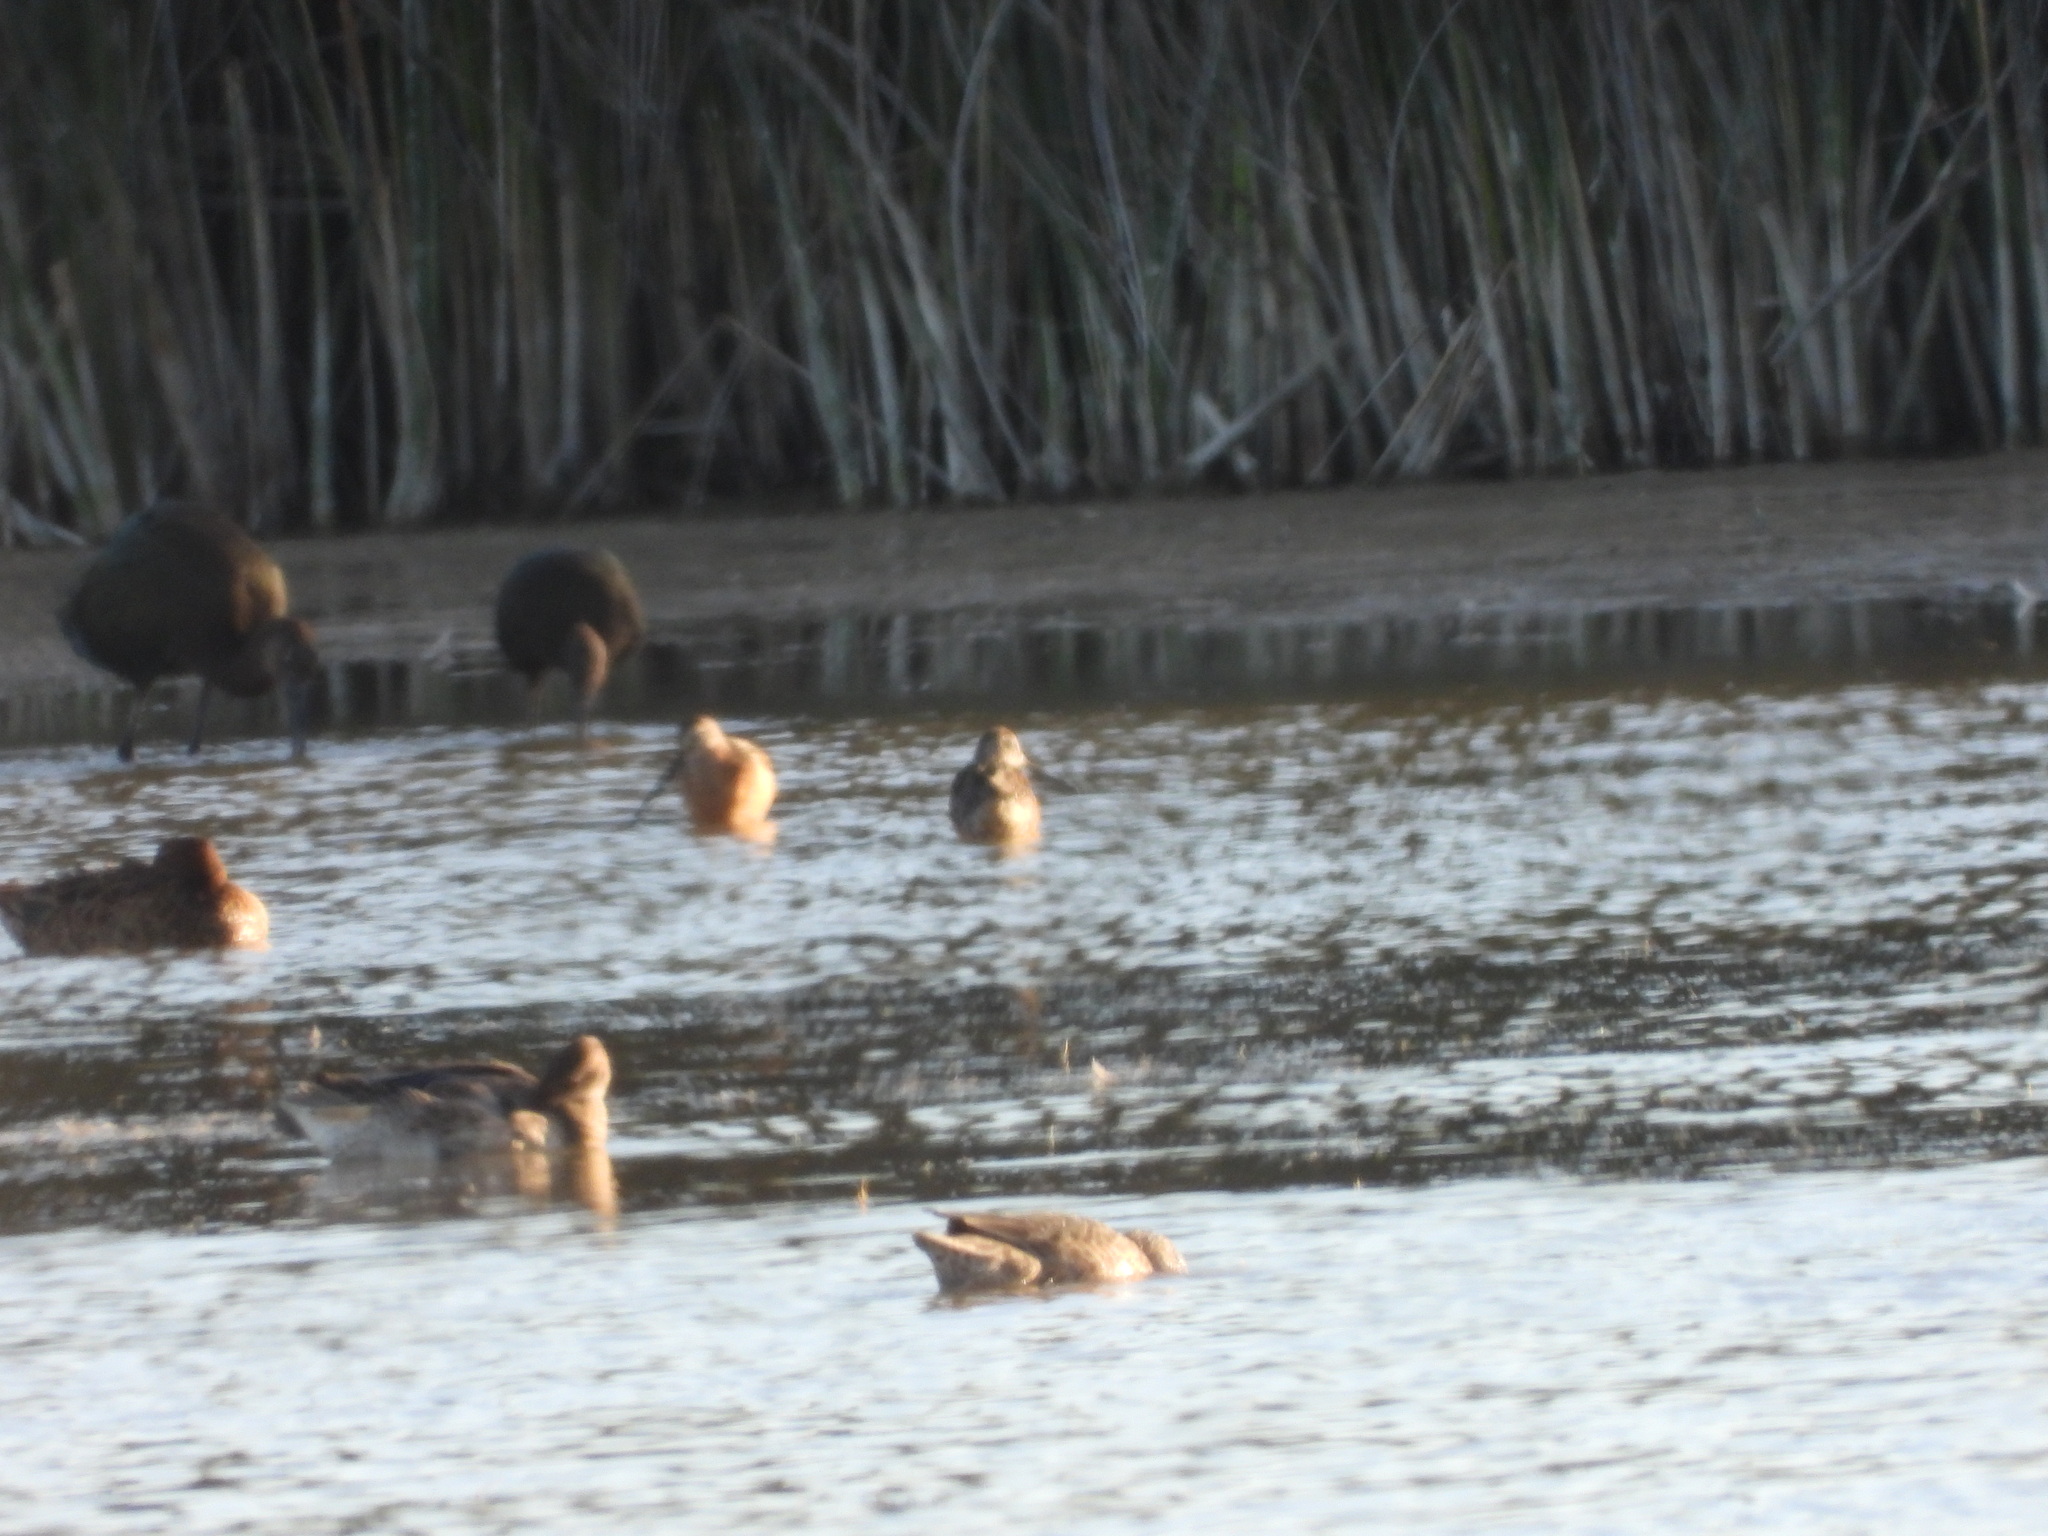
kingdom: Animalia
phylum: Chordata
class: Aves
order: Charadriiformes
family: Scolopacidae
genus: Limnodromus
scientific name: Limnodromus scolopaceus
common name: Long-billed dowitcher
